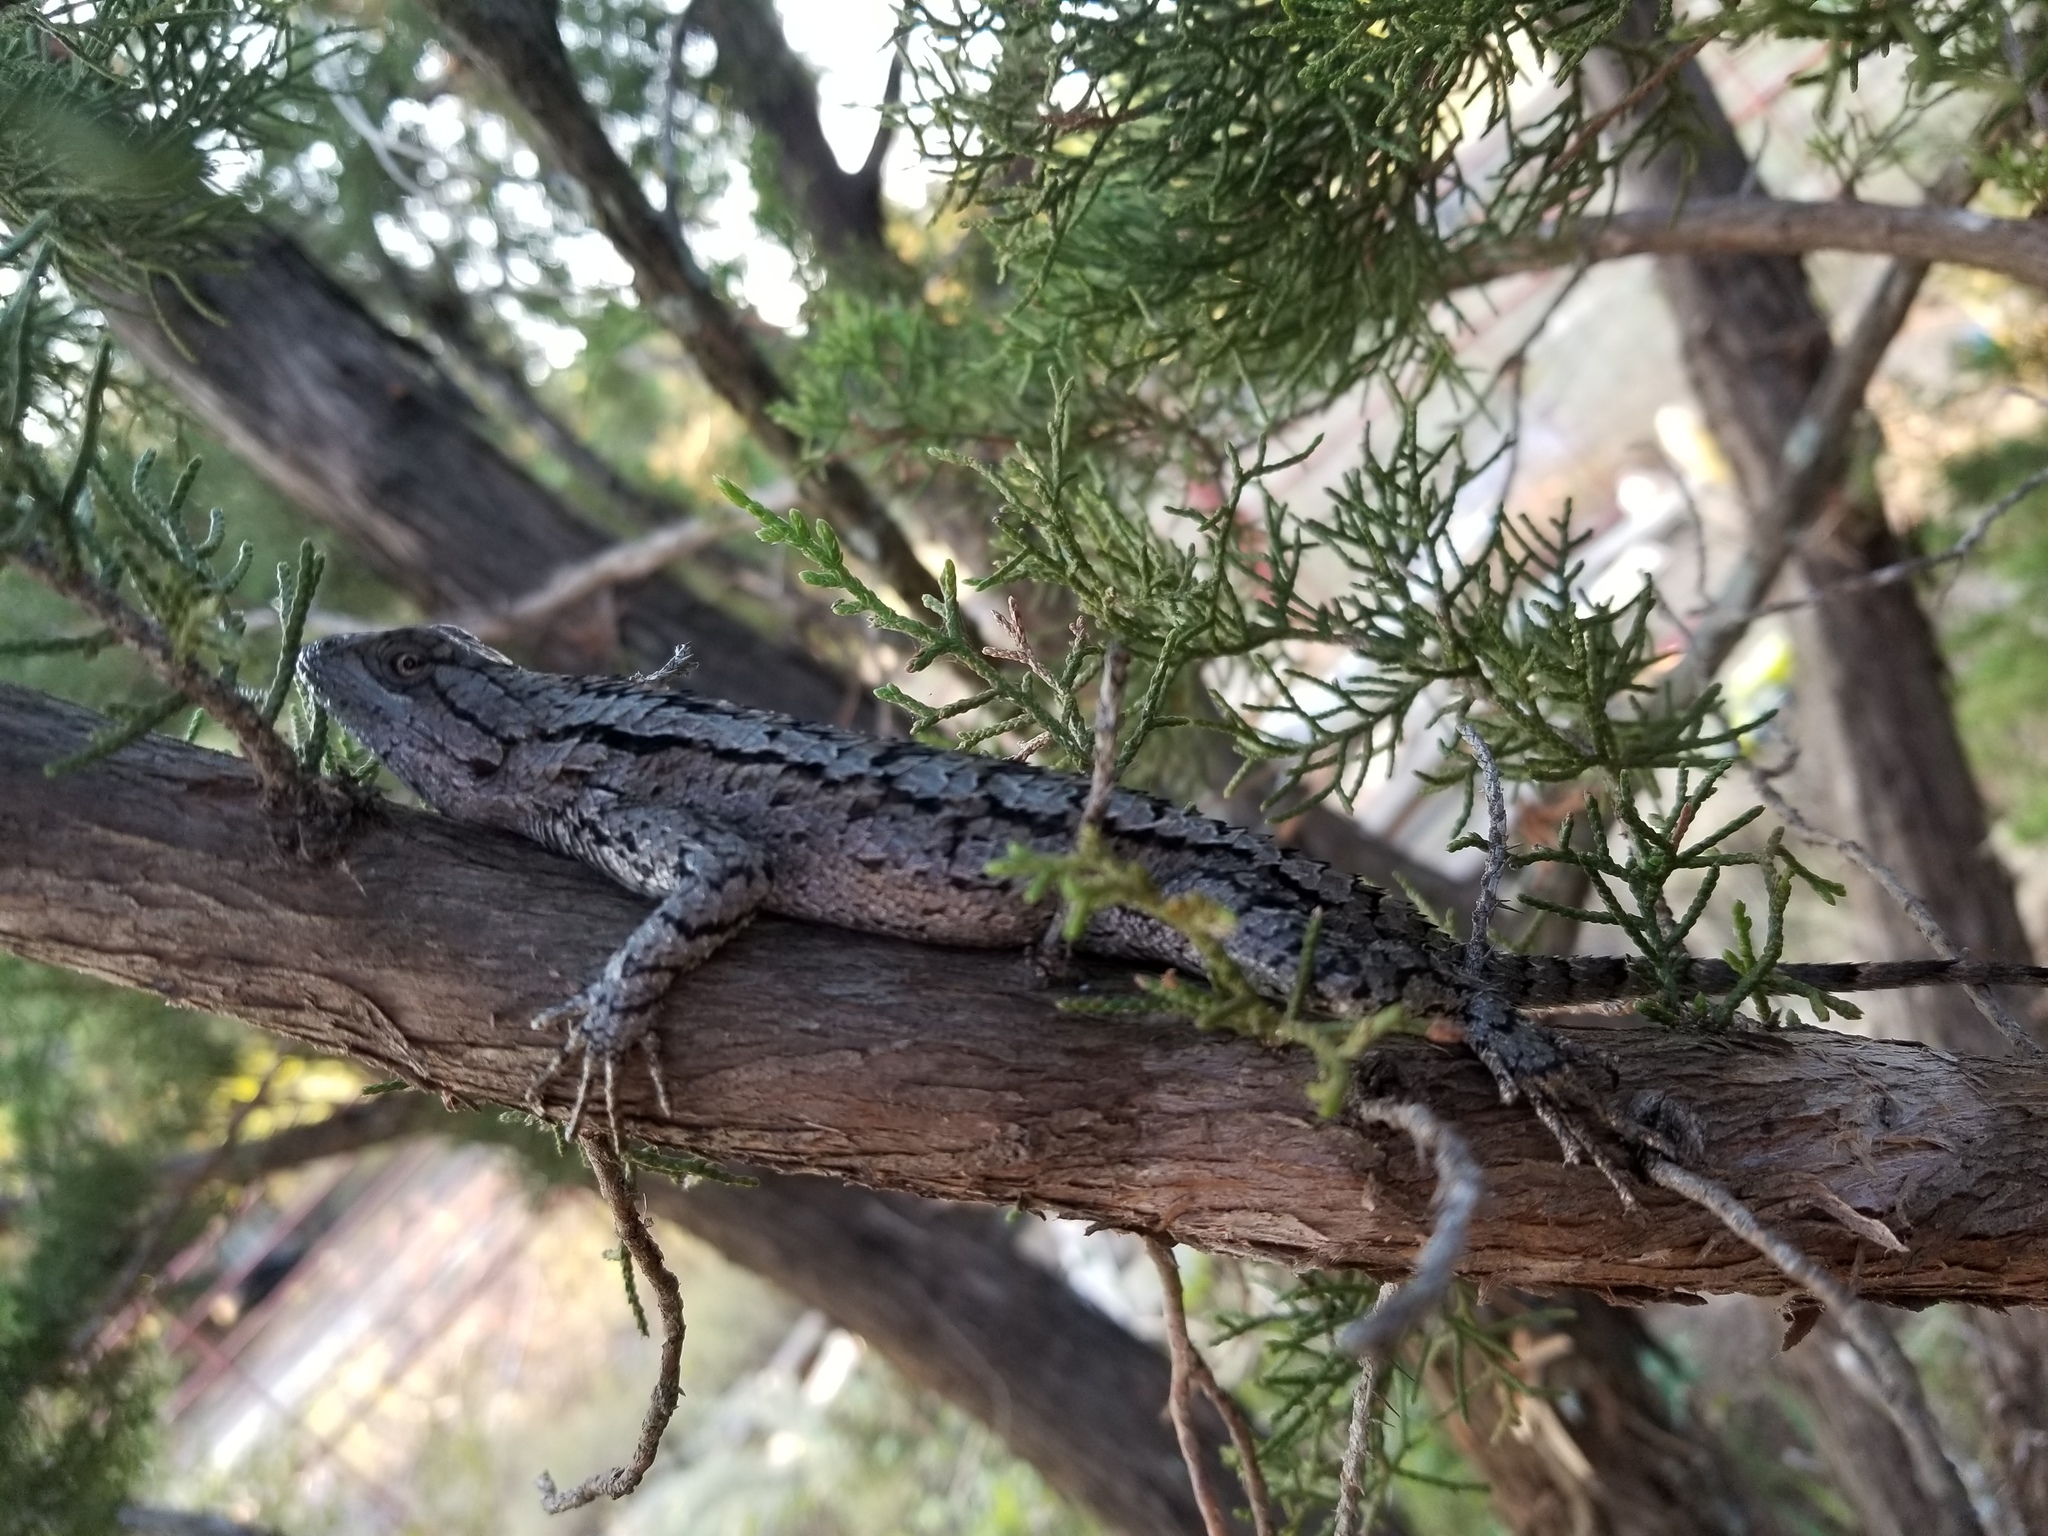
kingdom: Animalia
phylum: Chordata
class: Squamata
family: Phrynosomatidae
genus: Sceloporus
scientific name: Sceloporus olivaceus
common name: Texas spiny lizard
